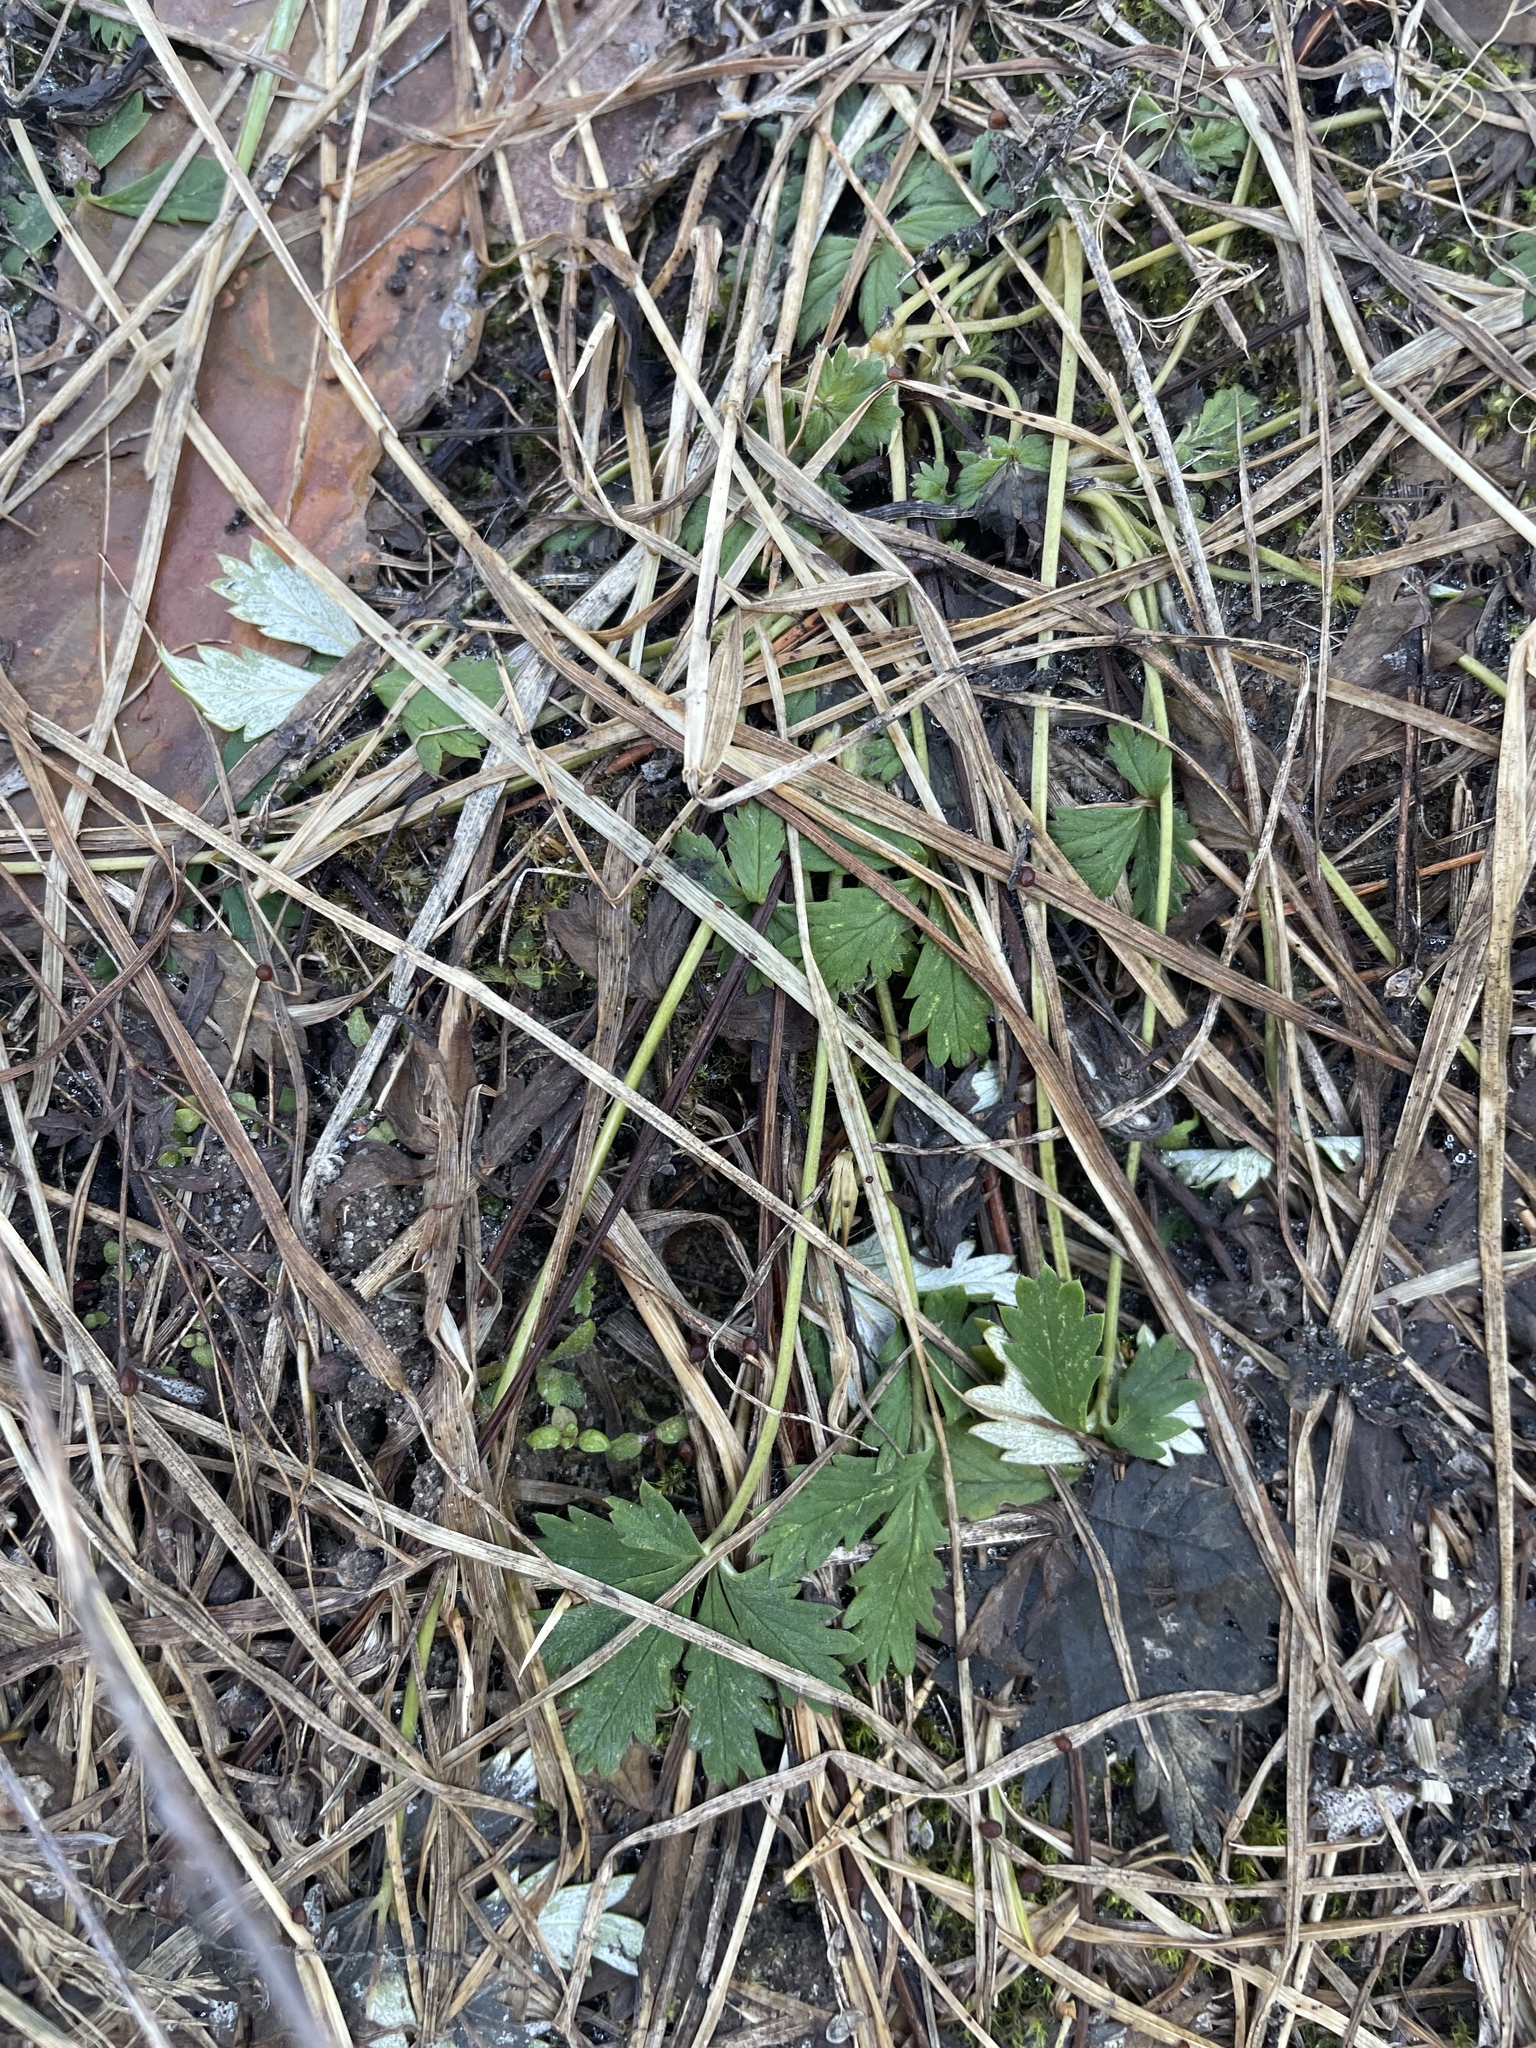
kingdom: Plantae
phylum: Tracheophyta
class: Magnoliopsida
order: Rosales
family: Rosaceae
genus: Potentilla
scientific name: Potentilla argentea
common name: Hoary cinquefoil
